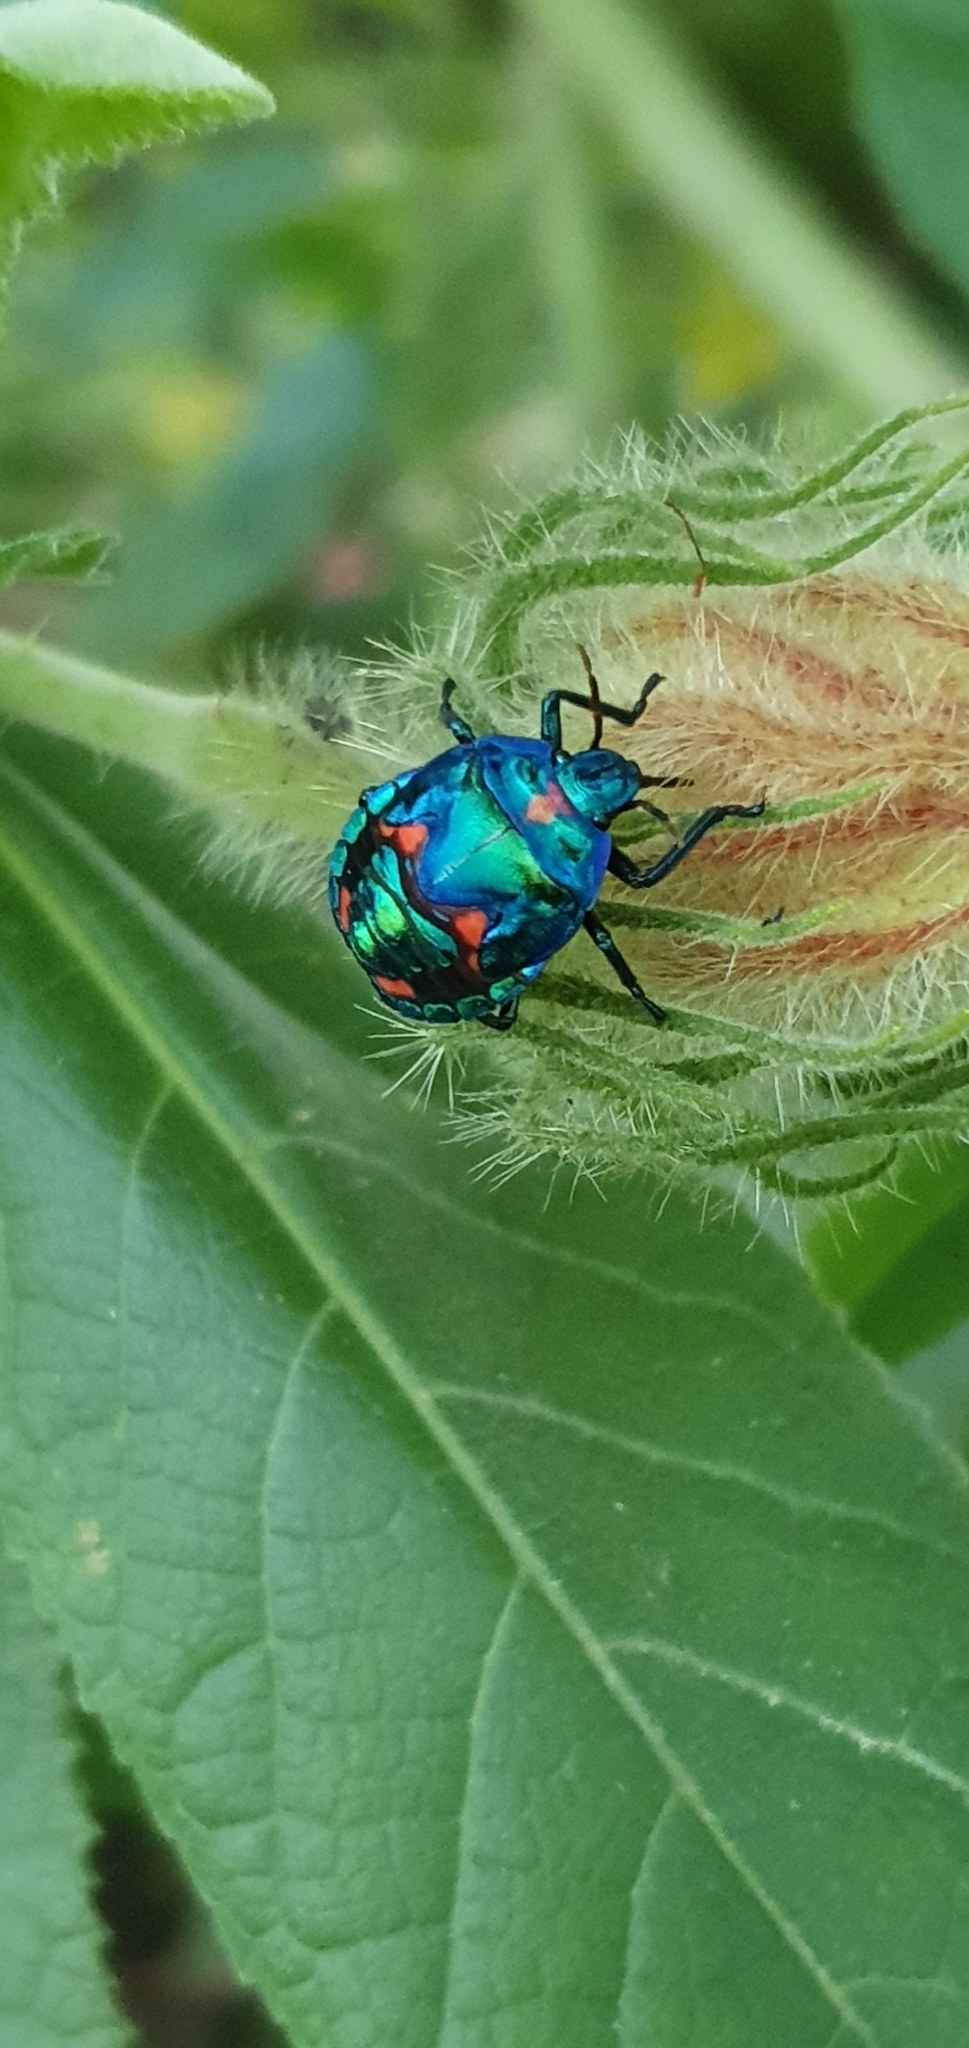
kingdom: Animalia
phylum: Arthropoda
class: Insecta
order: Hemiptera
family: Scutelleridae
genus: Tectocoris
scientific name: Tectocoris diophthalmus
